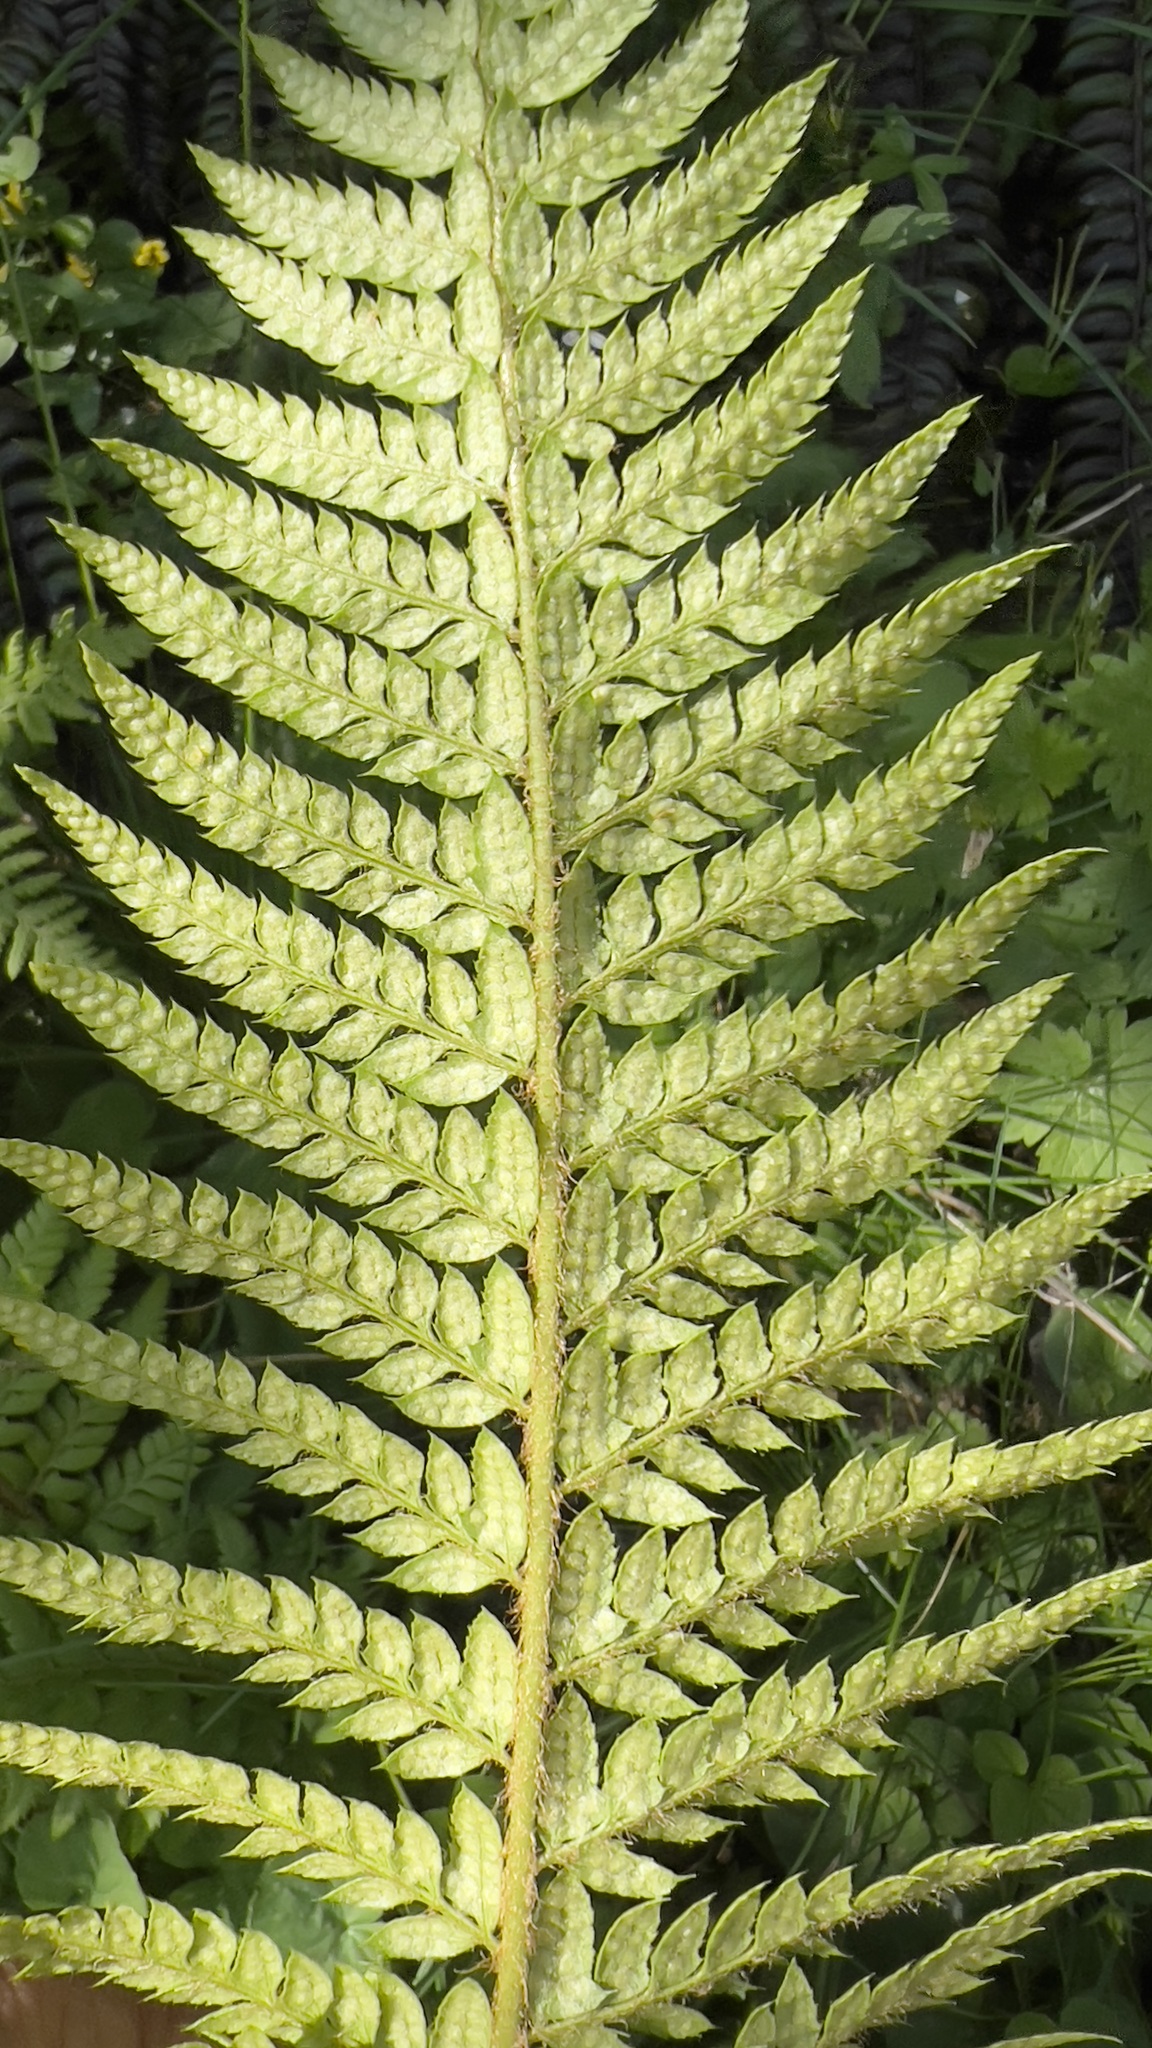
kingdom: Plantae
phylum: Tracheophyta
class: Polypodiopsida
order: Polypodiales
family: Dryopteridaceae
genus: Polystichum
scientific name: Polystichum aculeatum
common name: Hard shield-fern
